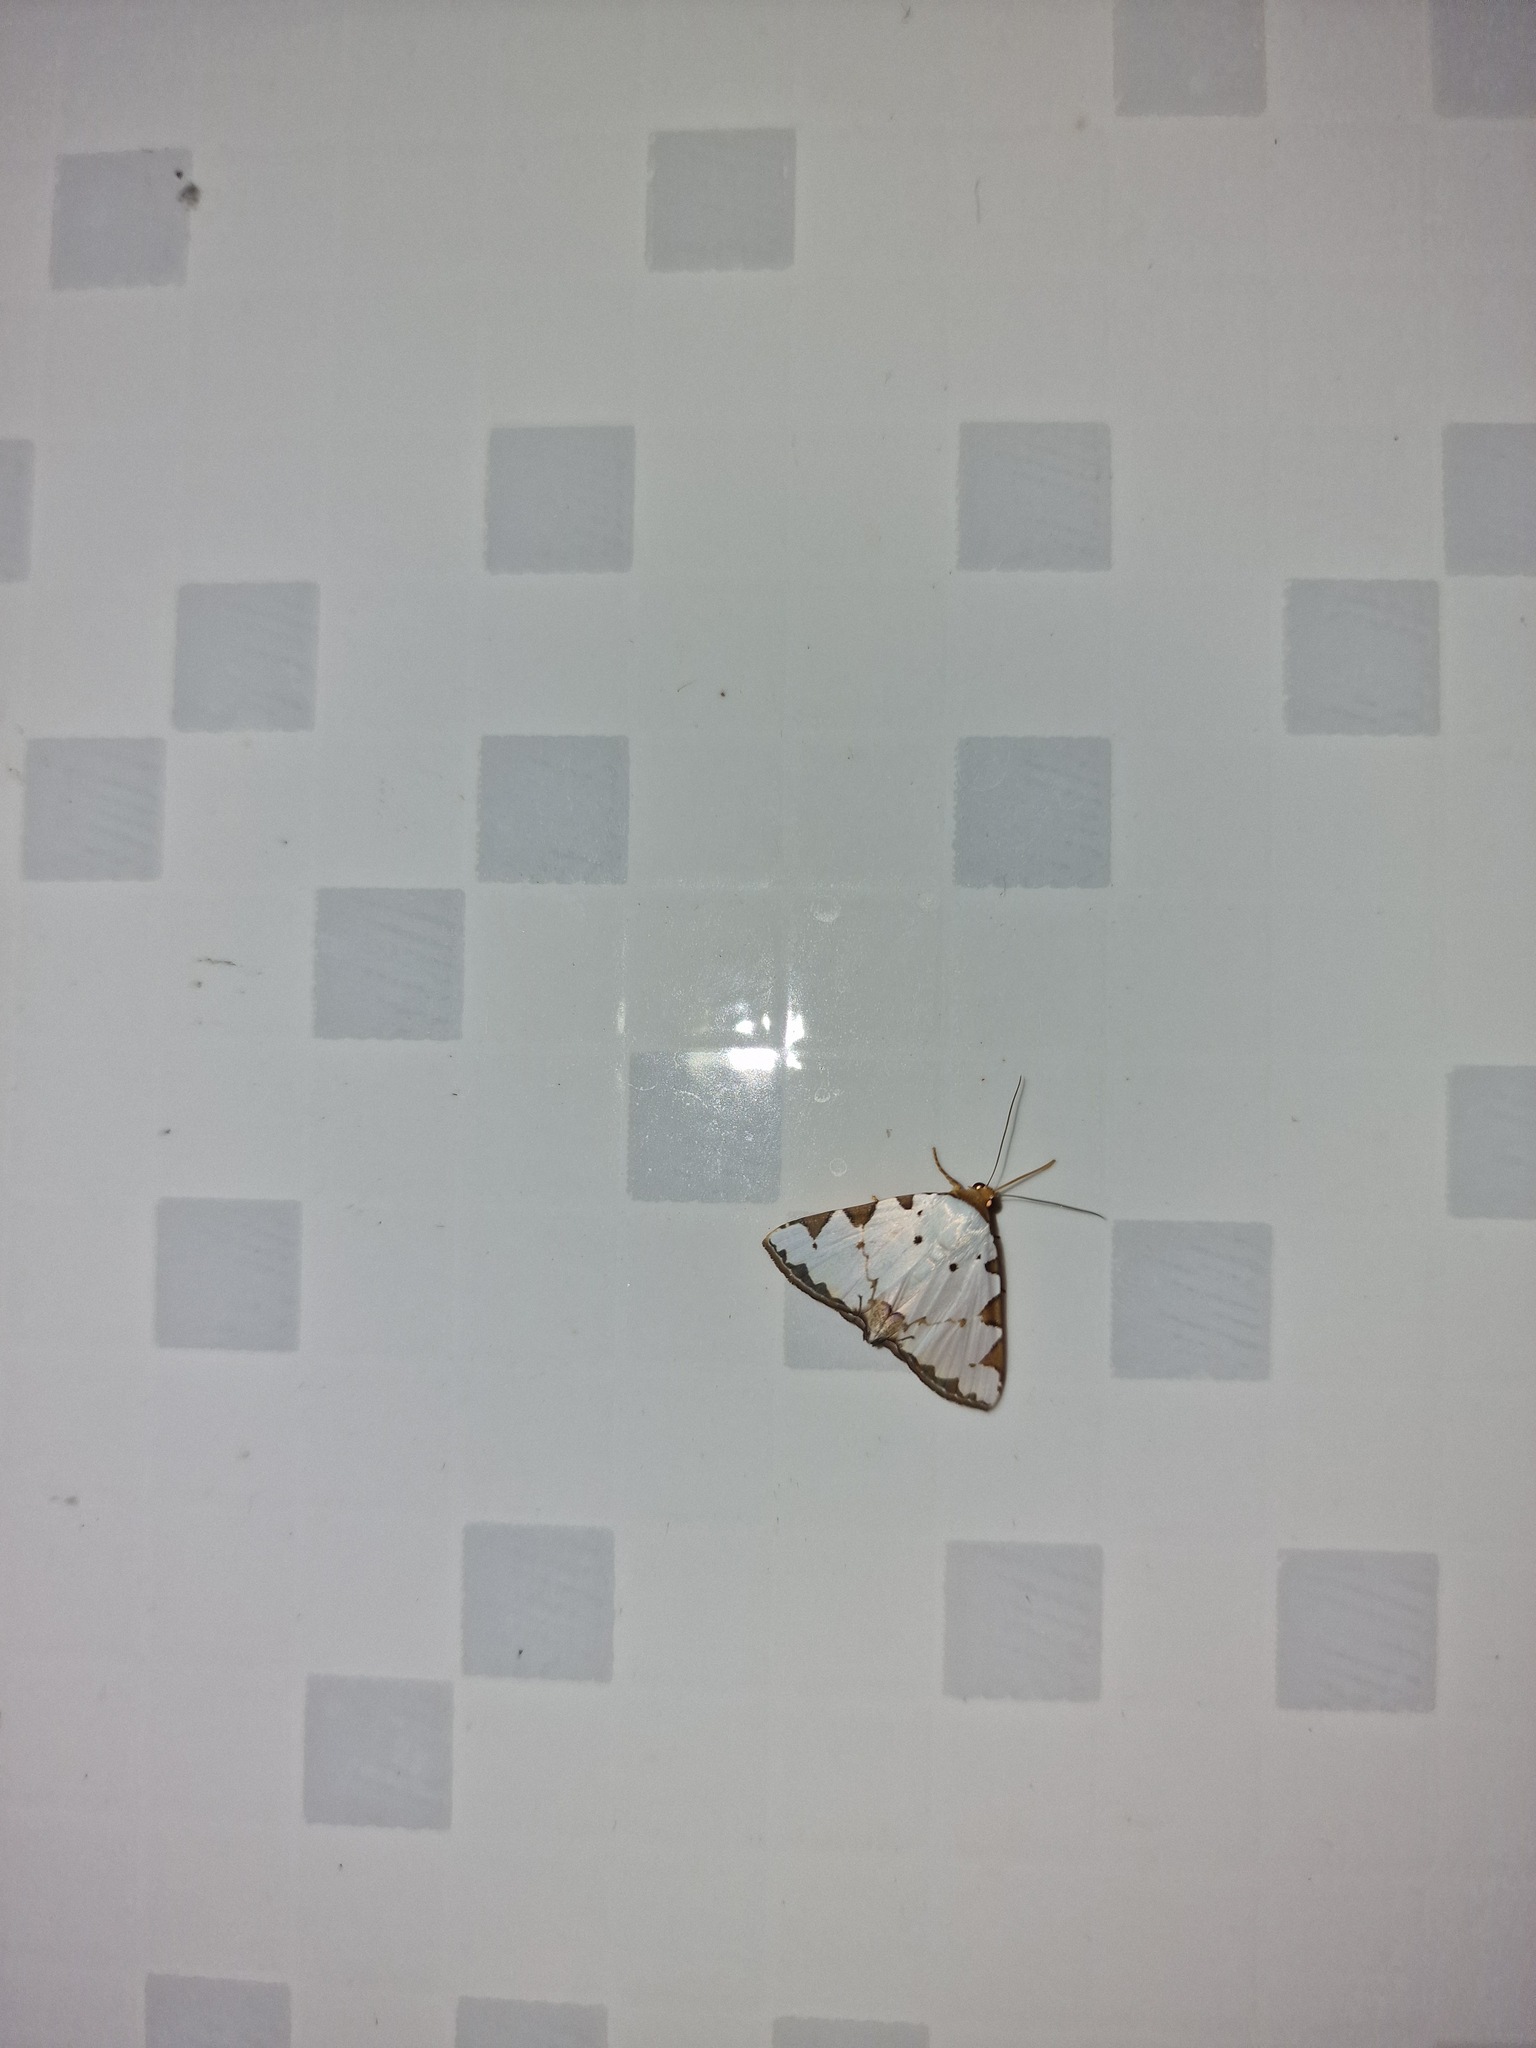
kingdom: Animalia
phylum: Arthropoda
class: Insecta
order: Lepidoptera
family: Erebidae
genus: Eulepidotis
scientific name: Eulepidotis testaceiceps
